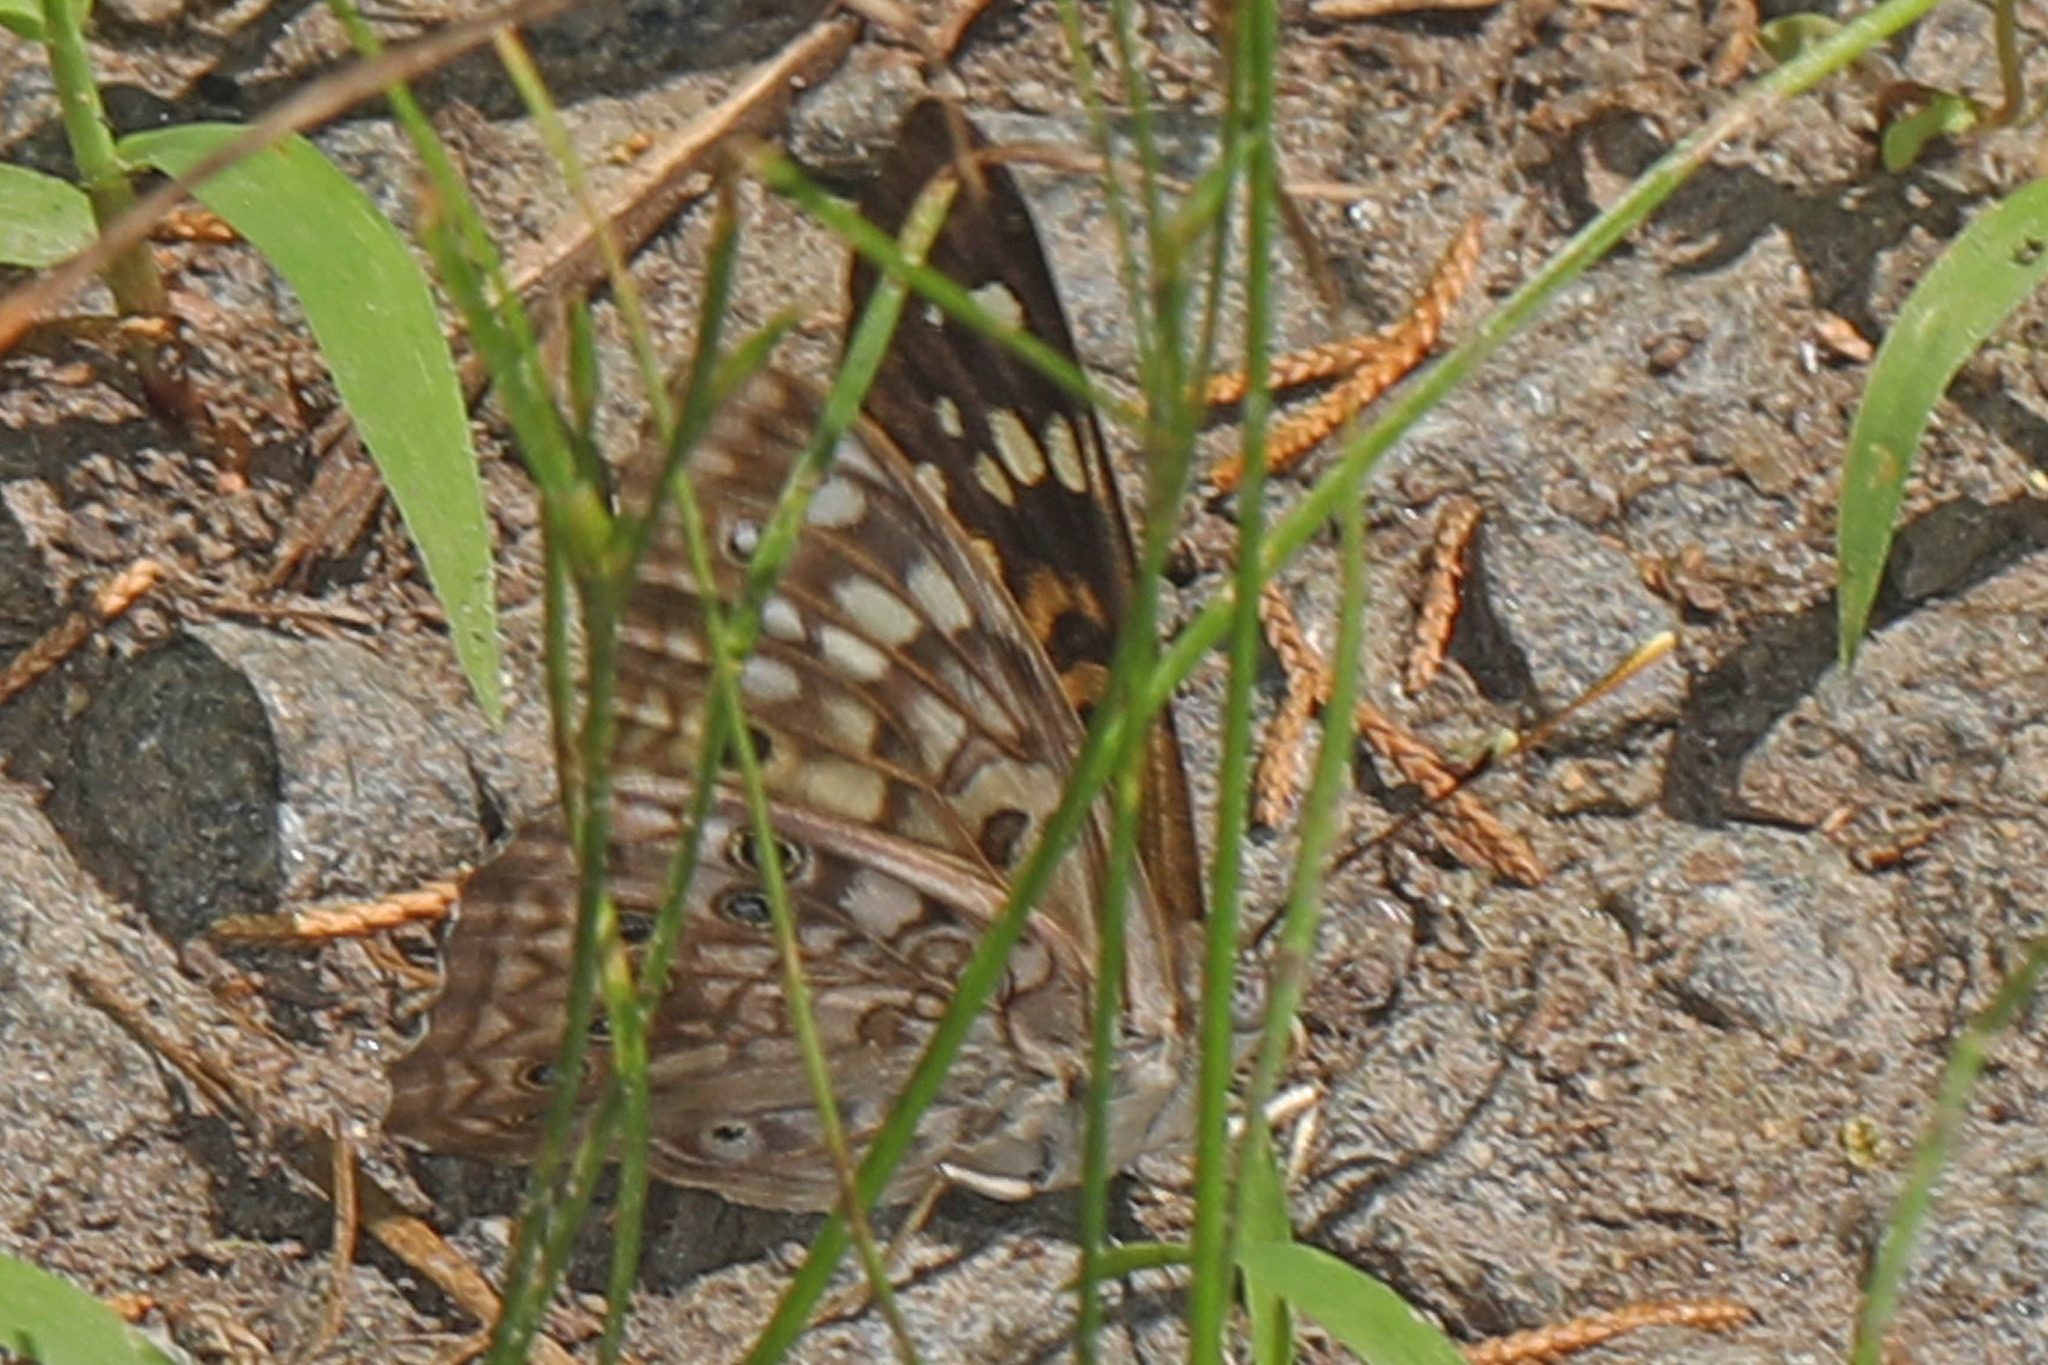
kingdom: Animalia
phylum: Arthropoda
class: Insecta
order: Lepidoptera
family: Nymphalidae
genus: Asterocampa
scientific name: Asterocampa celtis
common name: Hackberry emperor
